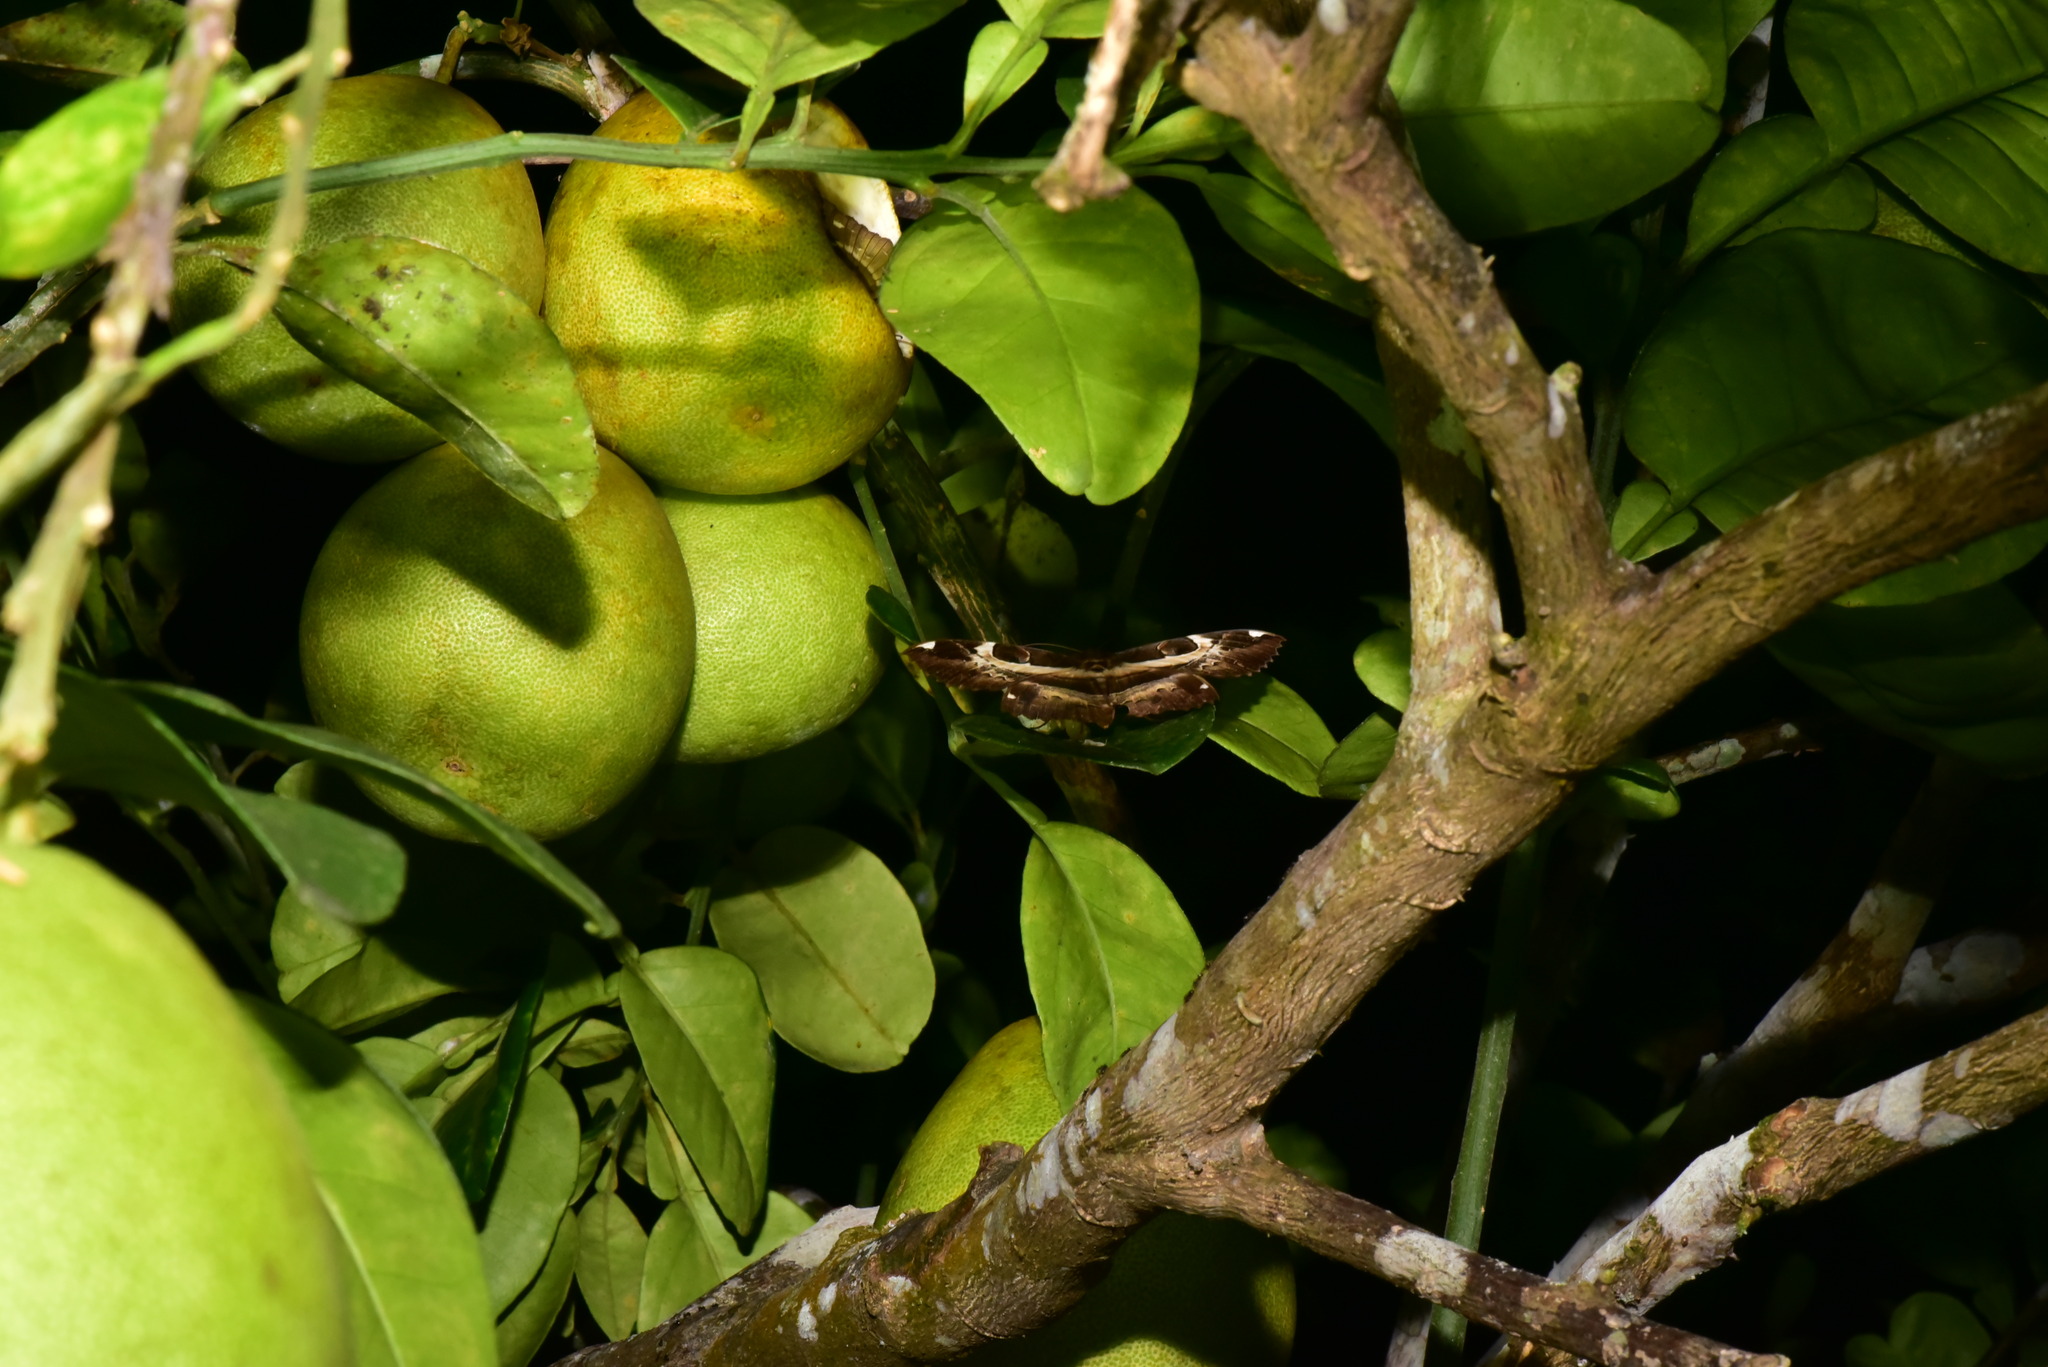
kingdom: Animalia
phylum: Arthropoda
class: Insecta
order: Lepidoptera
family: Erebidae
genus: Erebus
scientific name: Erebus ephesperis
